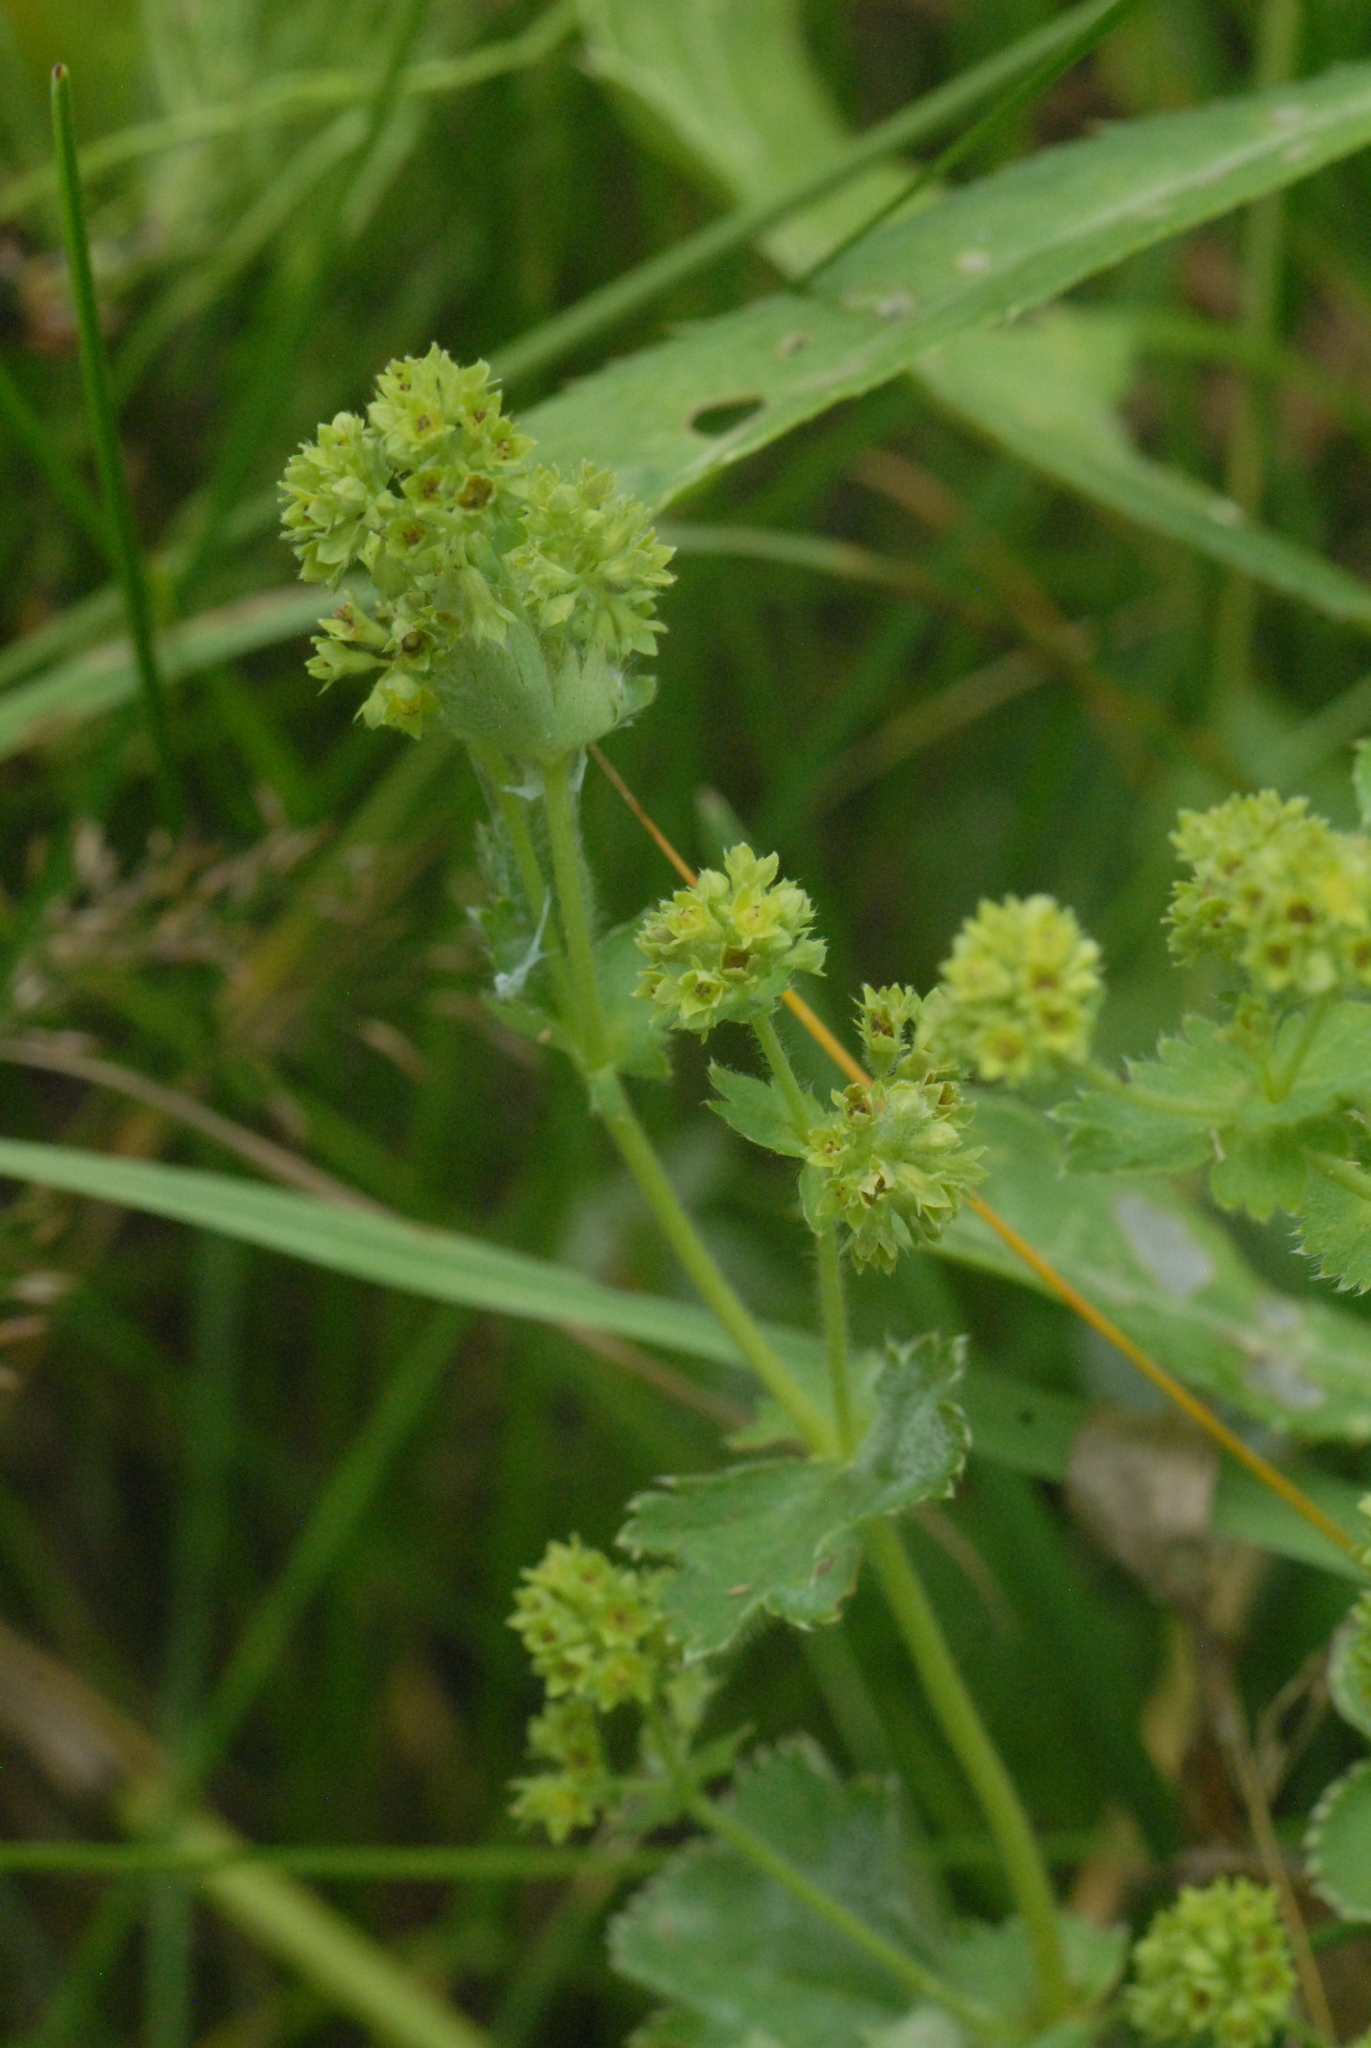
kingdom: Plantae
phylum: Tracheophyta
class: Magnoliopsida
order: Rosales
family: Rosaceae
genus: Alchemilla
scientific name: Alchemilla
